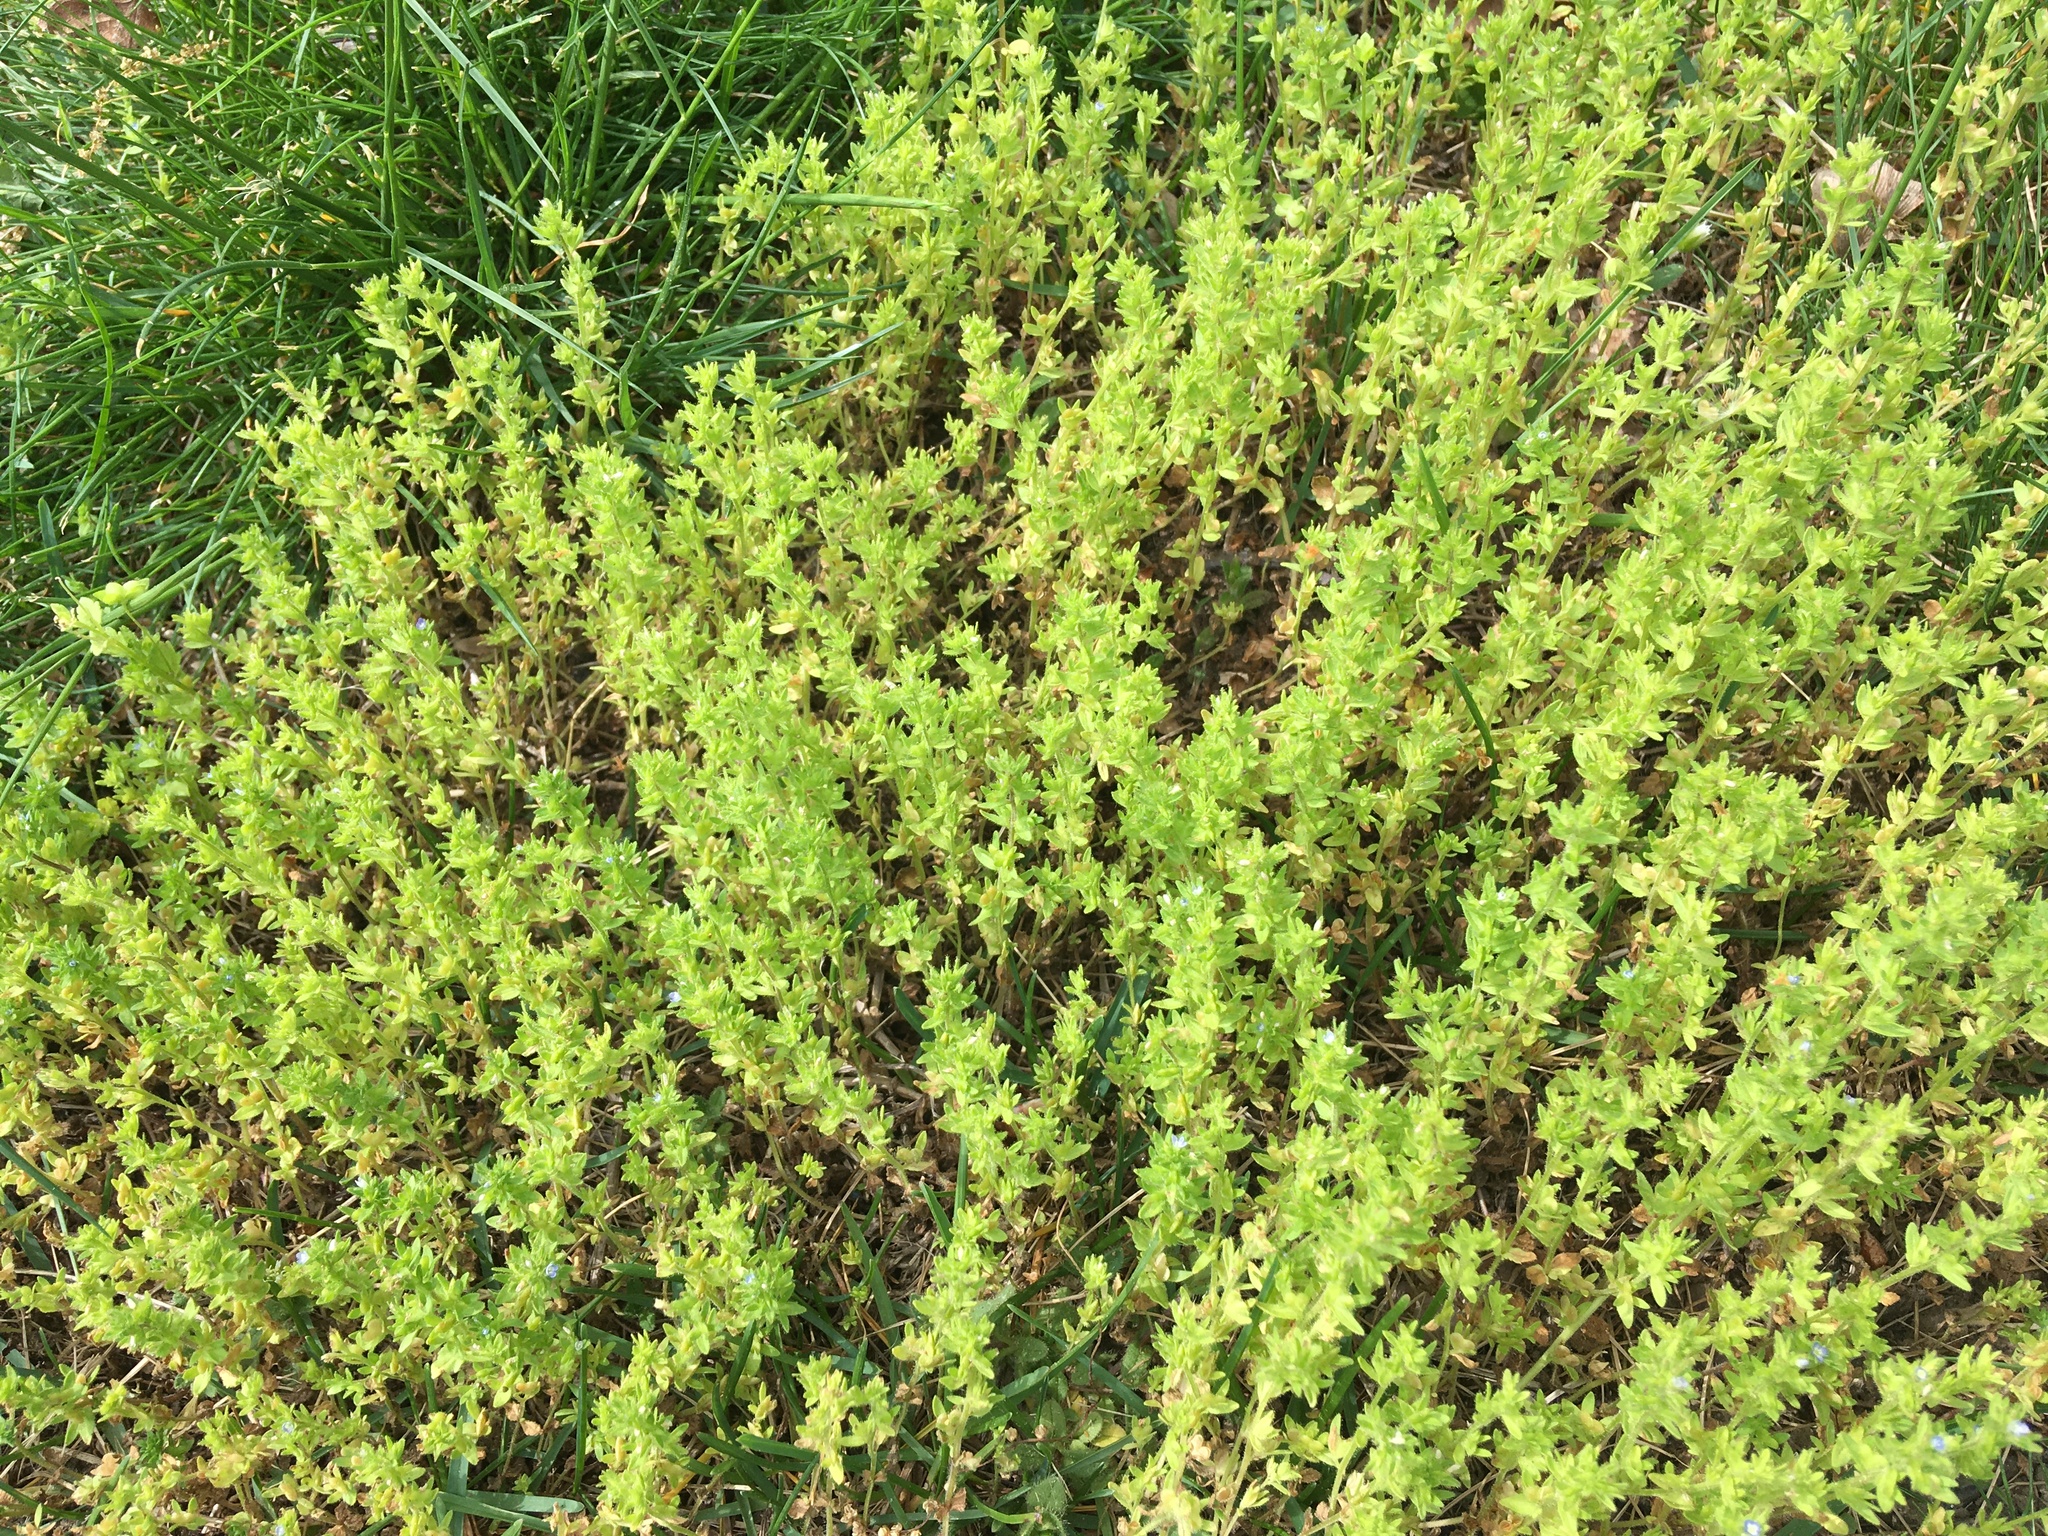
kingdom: Plantae
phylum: Tracheophyta
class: Magnoliopsida
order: Lamiales
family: Plantaginaceae
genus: Veronica
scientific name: Veronica arvensis
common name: Corn speedwell
